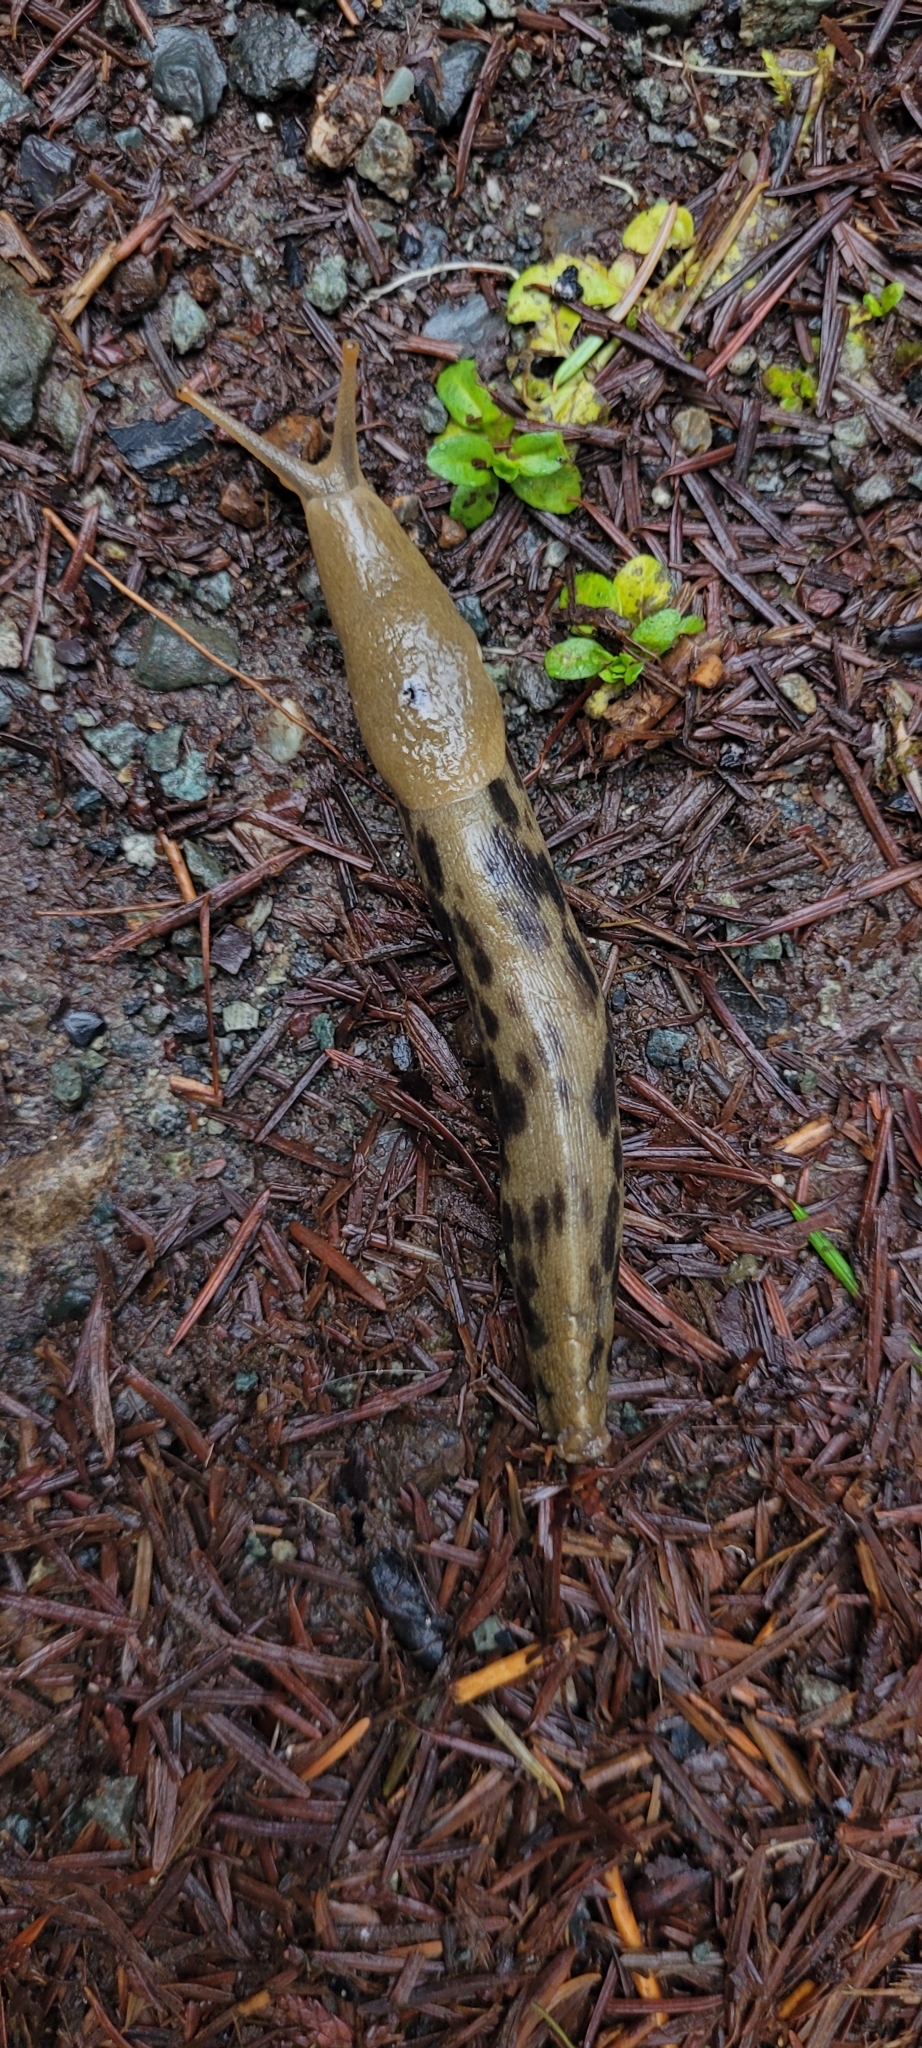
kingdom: Animalia
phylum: Mollusca
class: Gastropoda
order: Stylommatophora
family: Ariolimacidae
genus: Ariolimax
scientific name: Ariolimax columbianus
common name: Pacific banana slug
